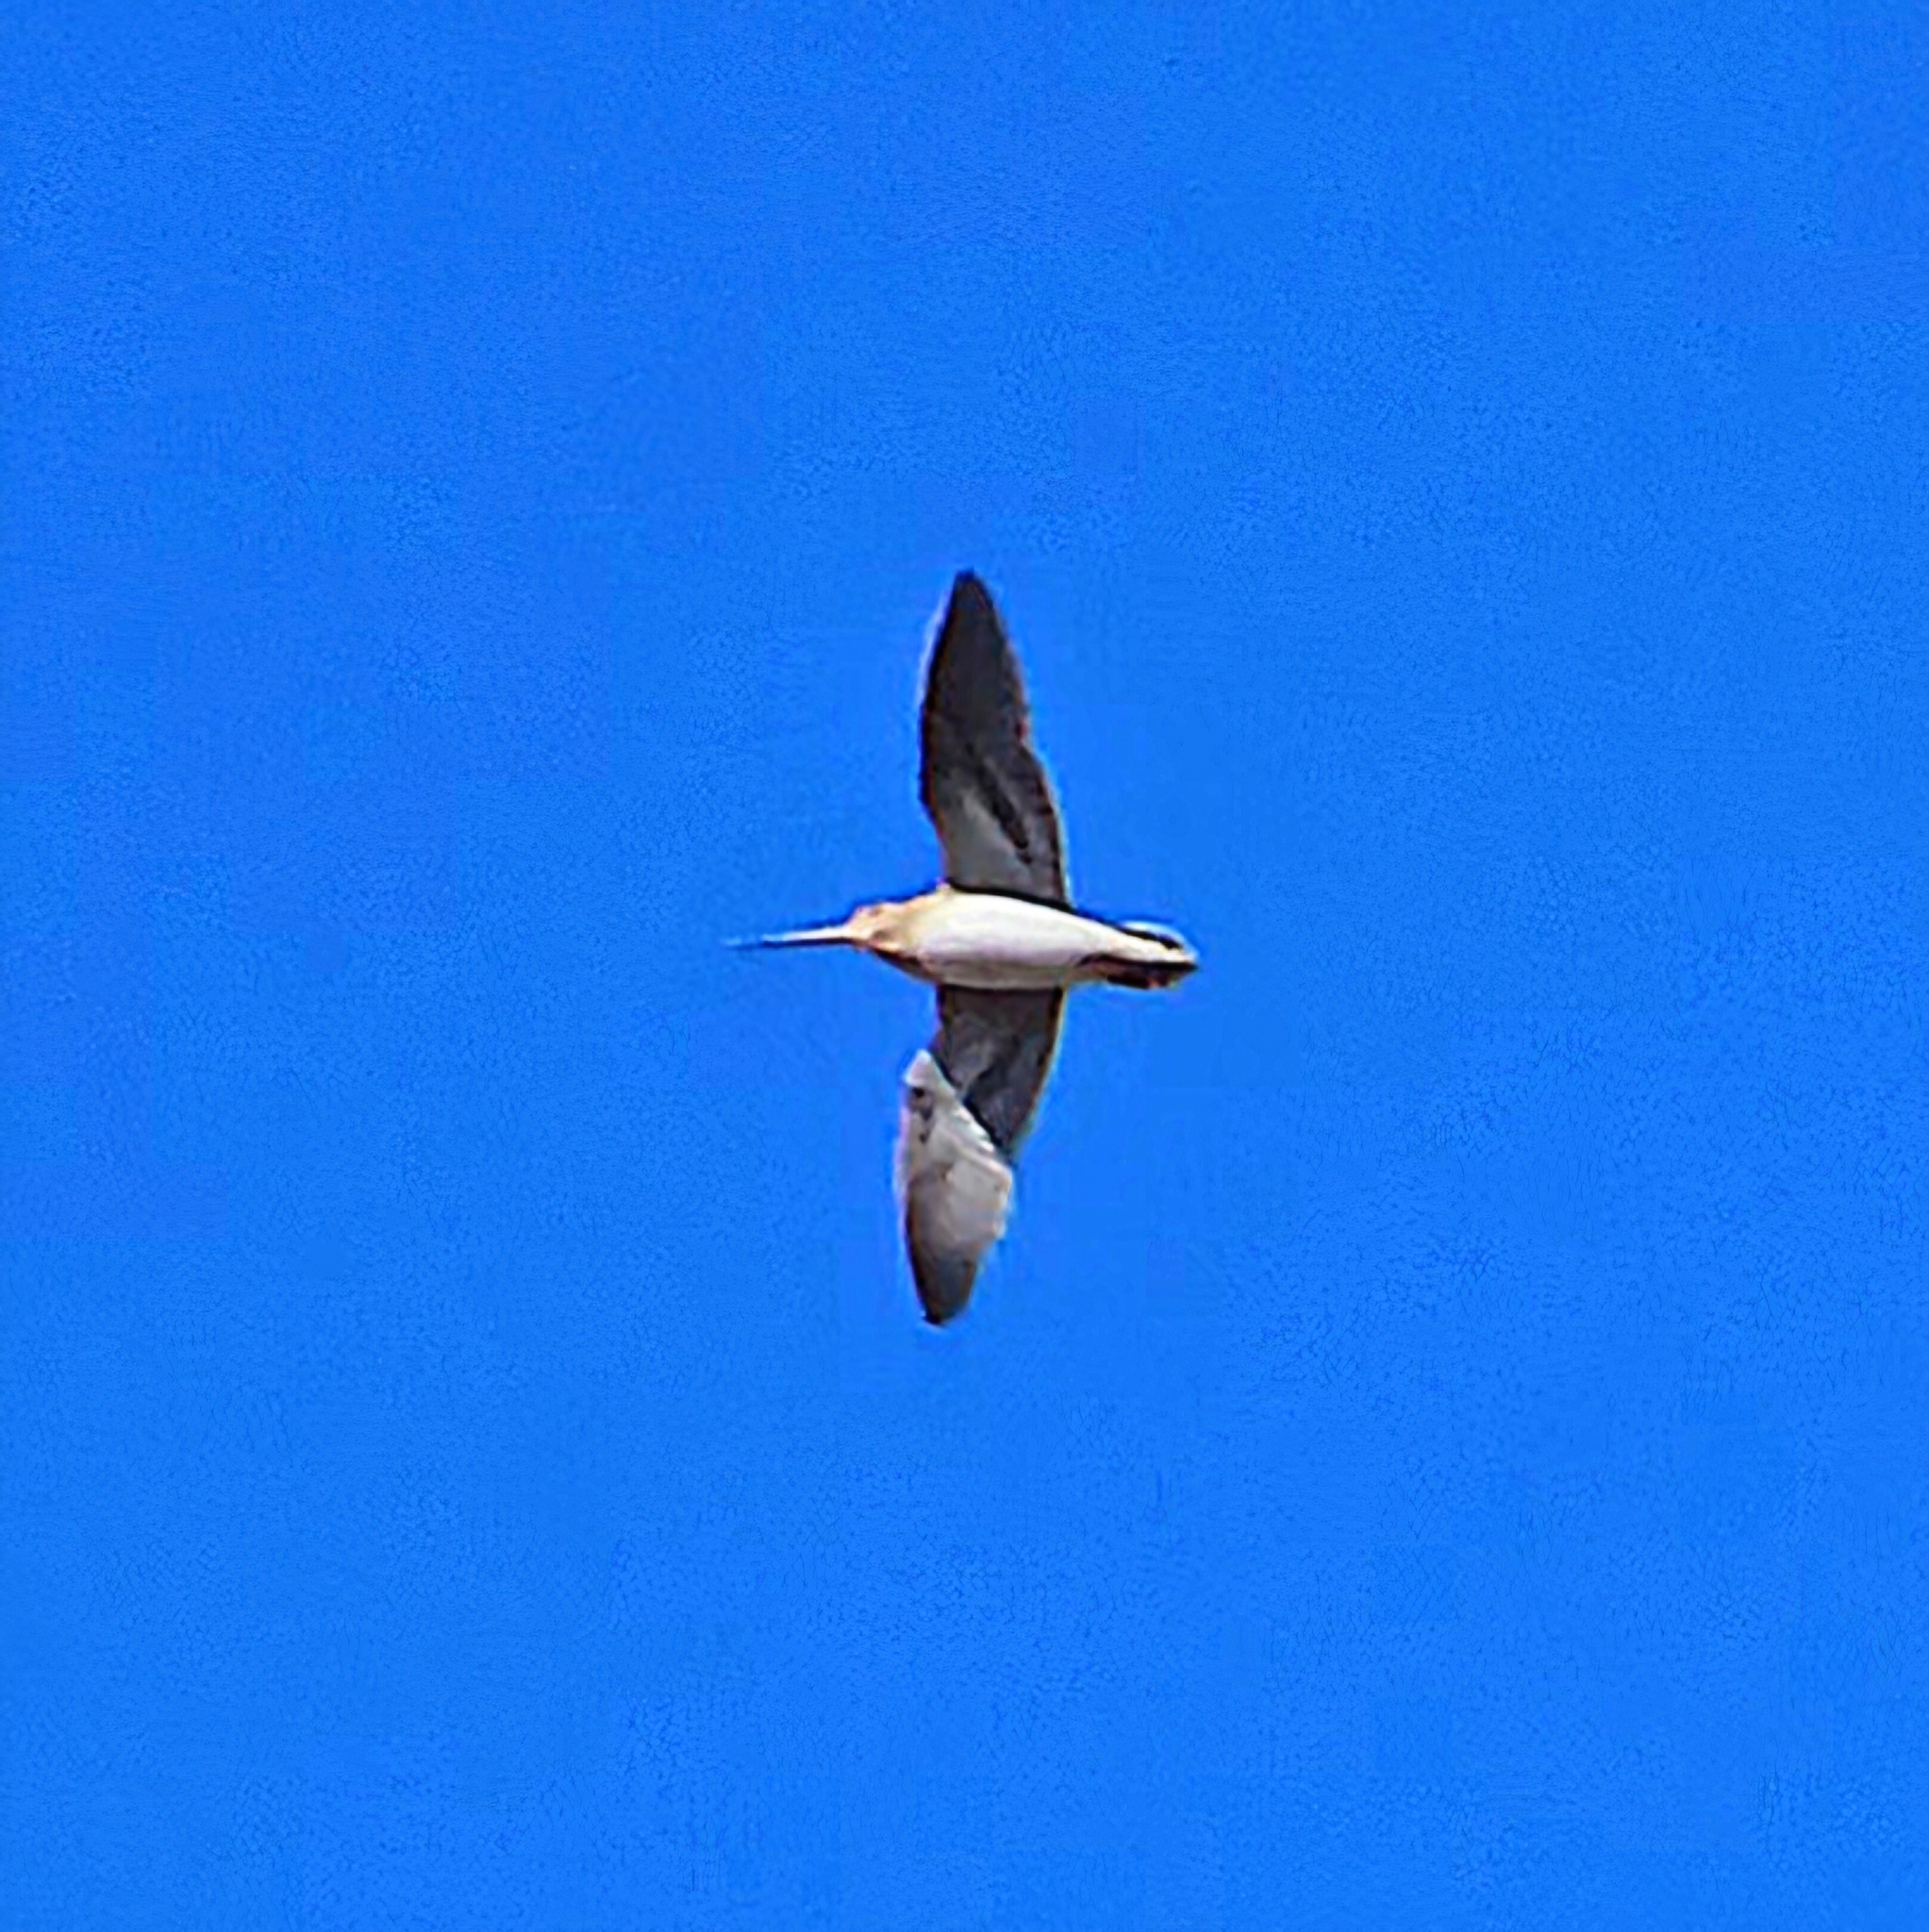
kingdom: Animalia
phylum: Chordata
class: Aves
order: Charadriiformes
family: Scolopacidae
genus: Gallinago
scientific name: Gallinago gallinago
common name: Common snipe
